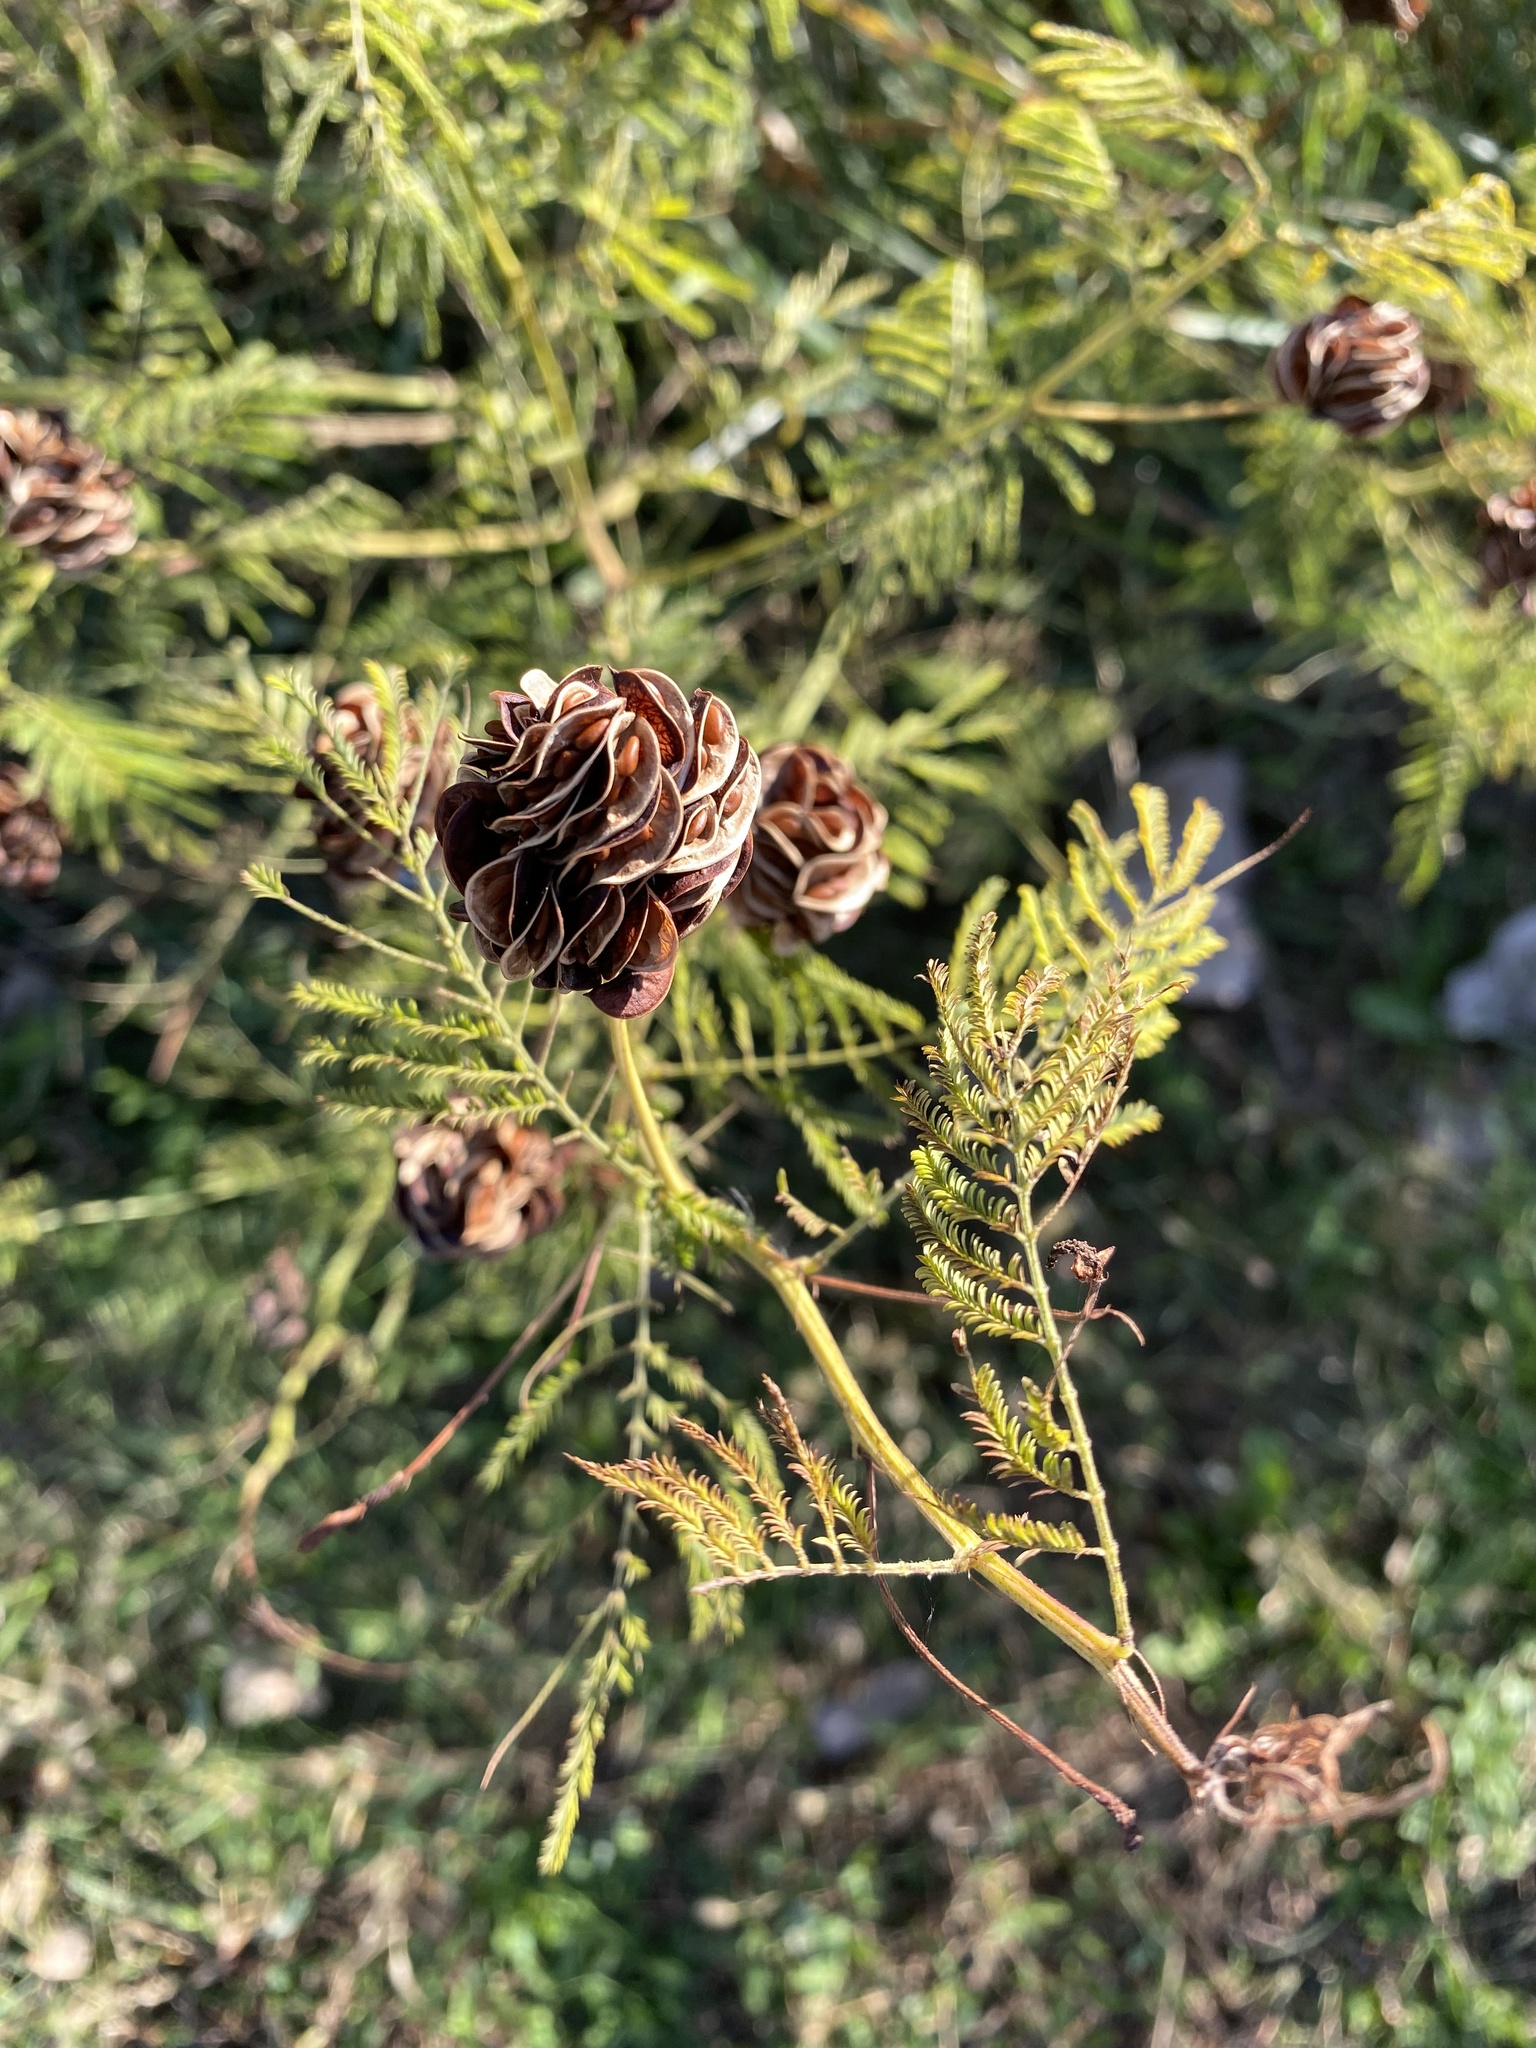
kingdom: Plantae
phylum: Tracheophyta
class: Magnoliopsida
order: Fabales
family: Fabaceae
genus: Desmanthus
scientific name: Desmanthus illinoensis
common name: Illinois bundle-flower
